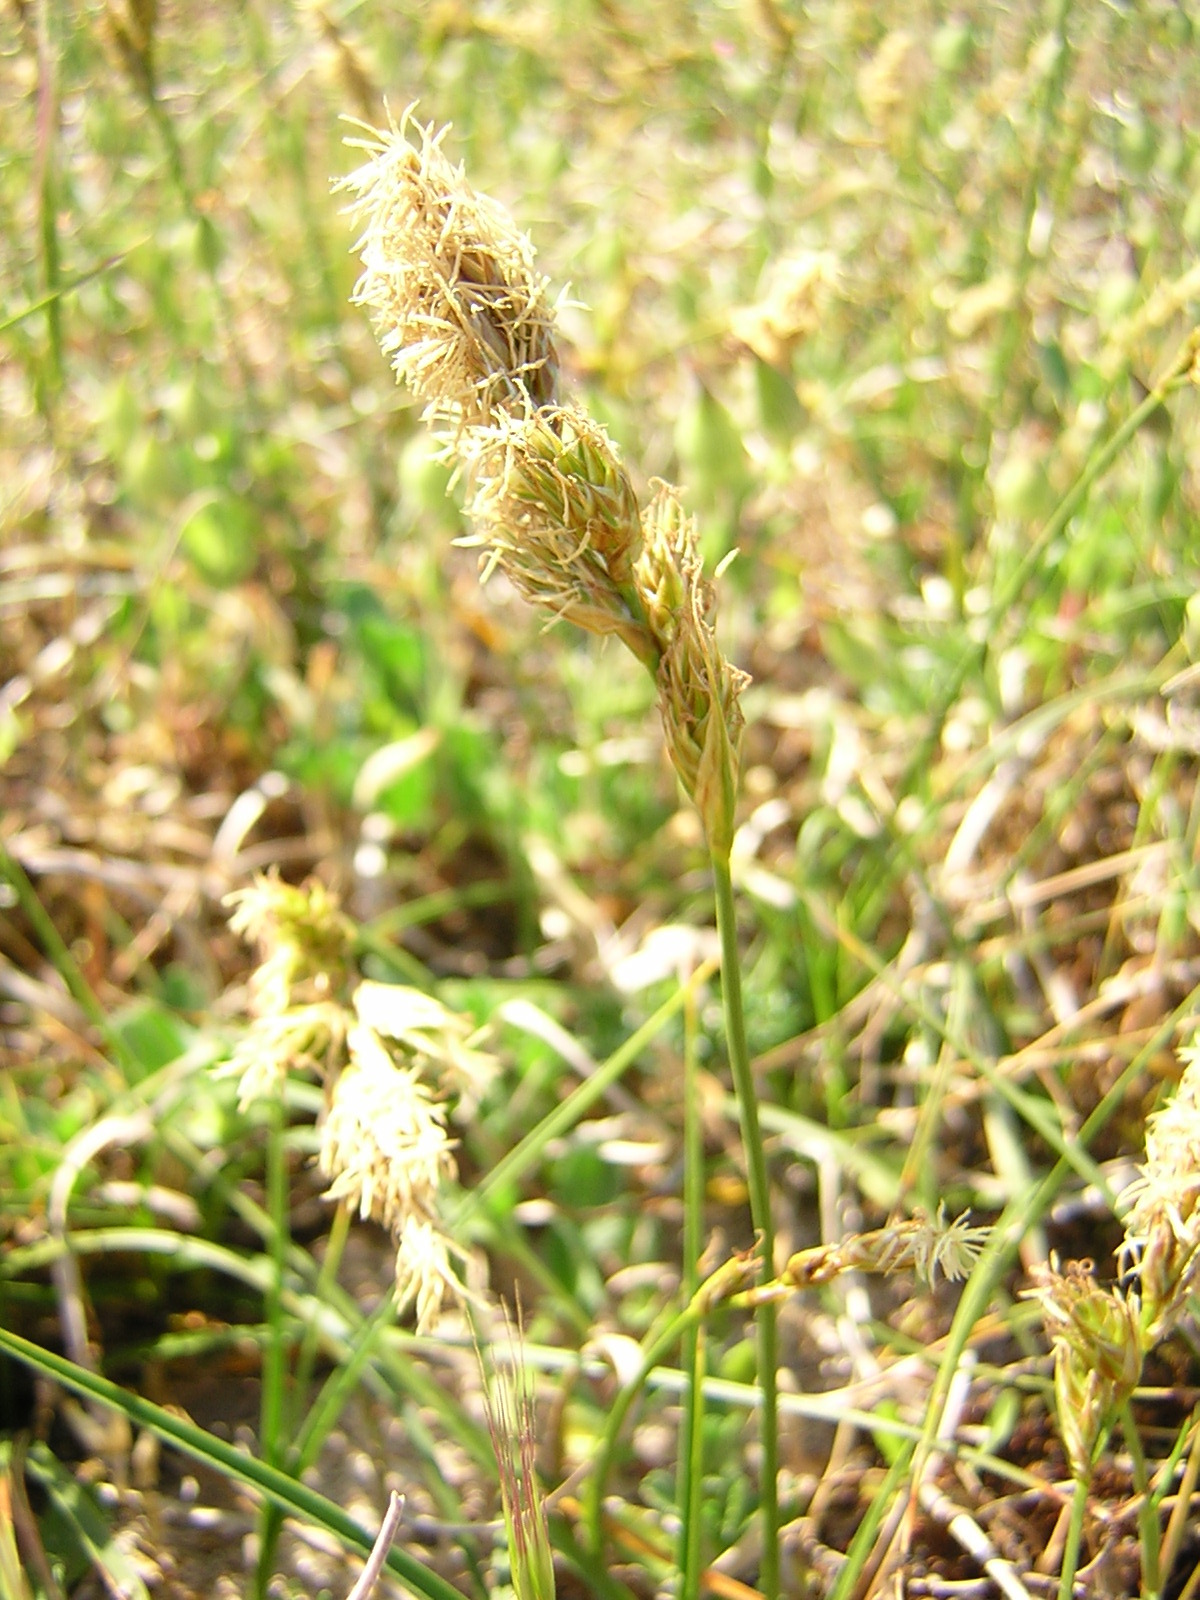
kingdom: Plantae
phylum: Tracheophyta
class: Liliopsida
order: Poales
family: Cyperaceae
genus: Carex
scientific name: Carex arenaria
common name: Sand sedge
